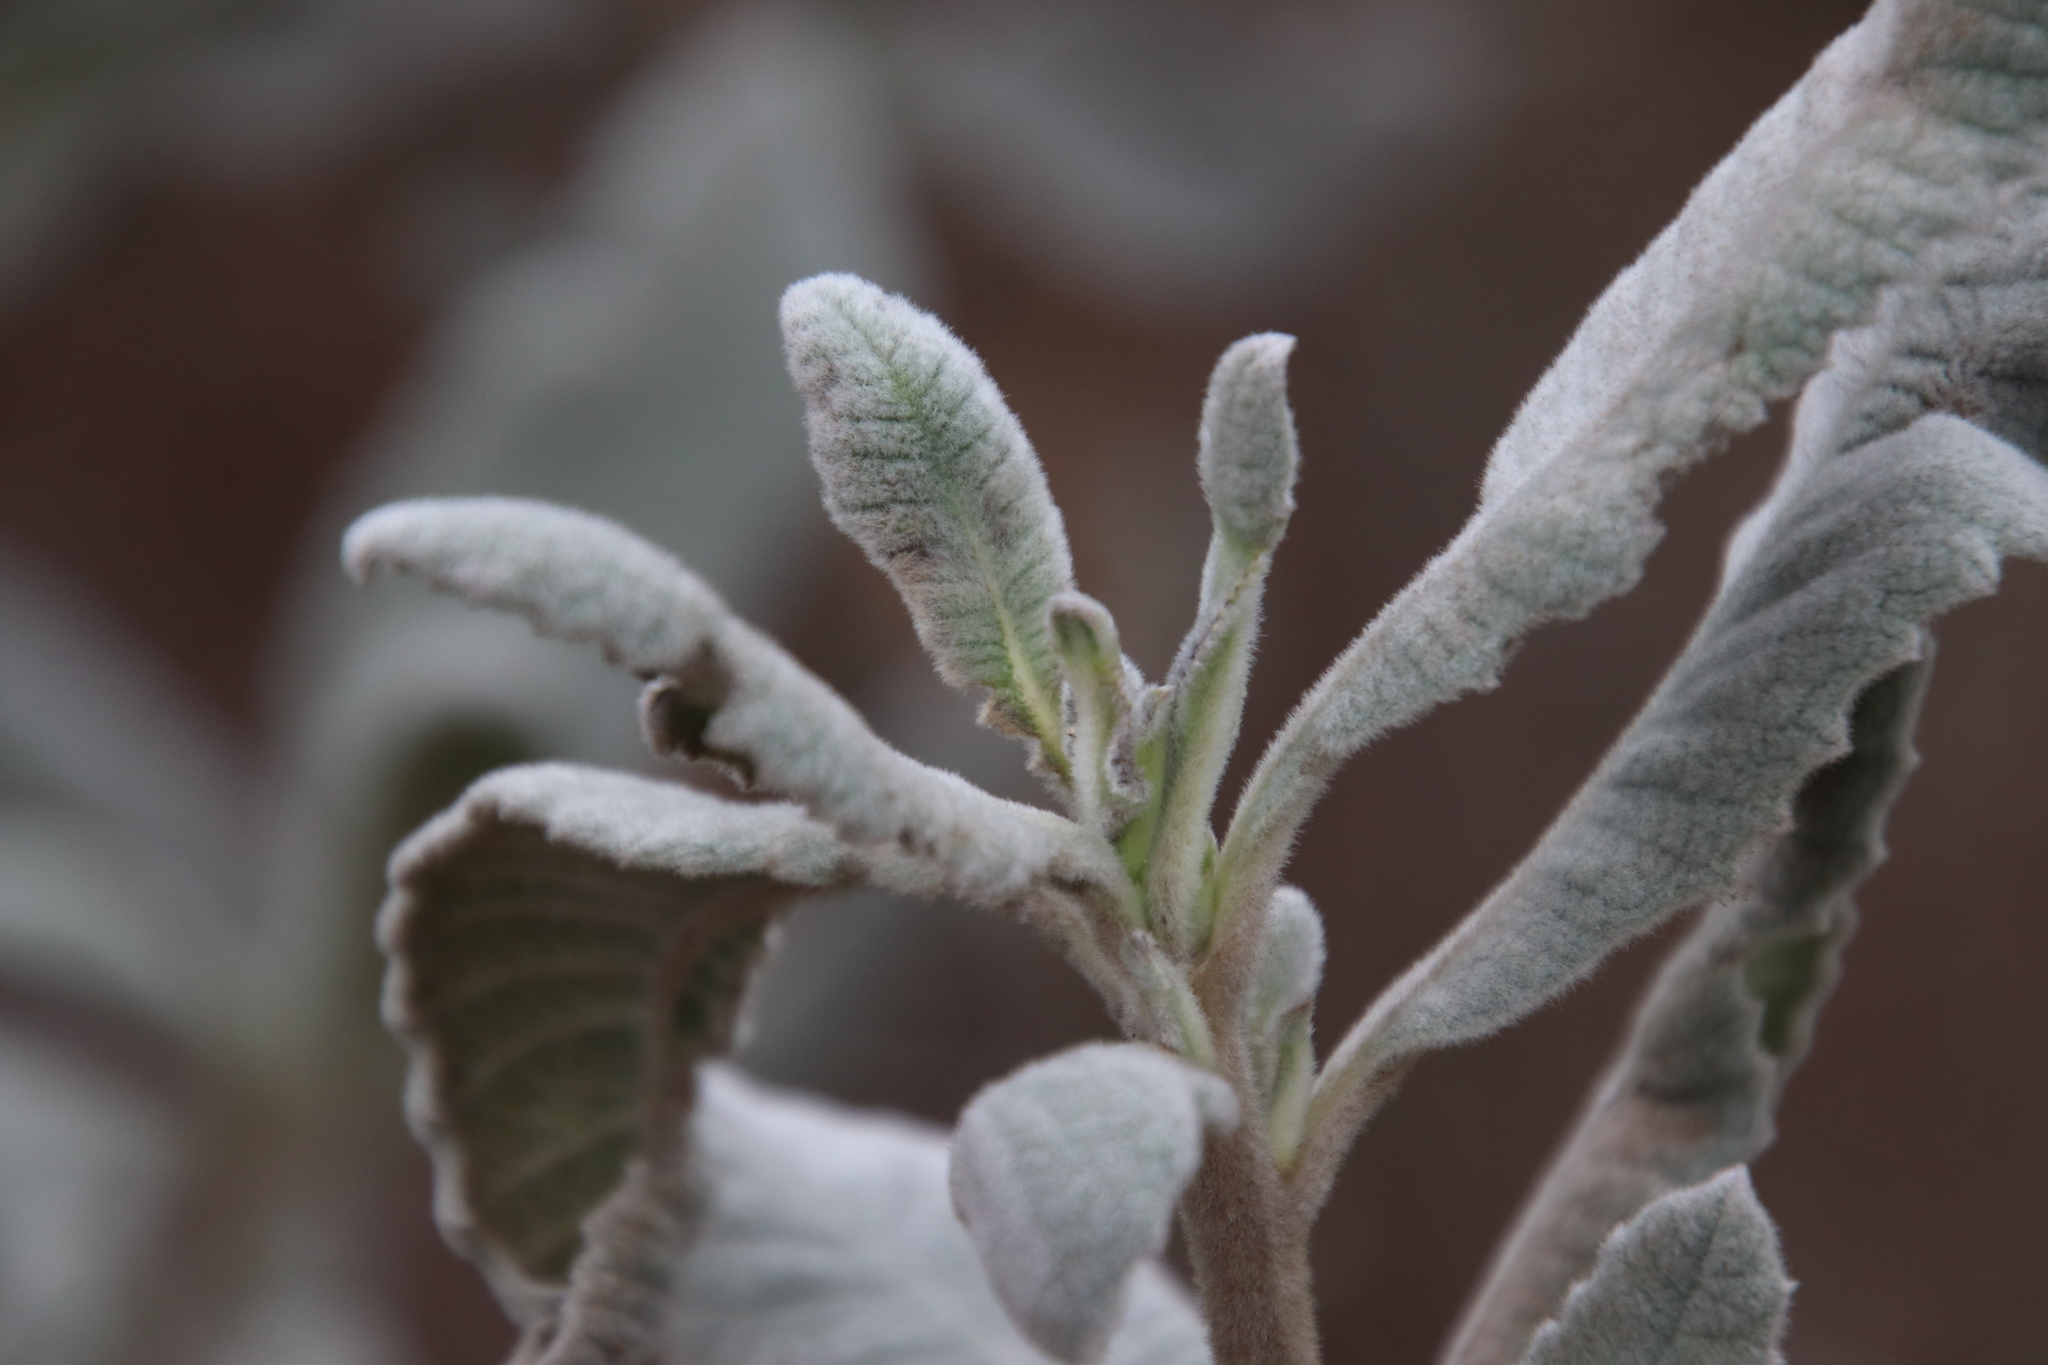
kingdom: Plantae
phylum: Tracheophyta
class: Magnoliopsida
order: Boraginales
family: Namaceae
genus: Eriodictyon
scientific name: Eriodictyon crassifolium
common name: Thick-leaf yerba-santa
